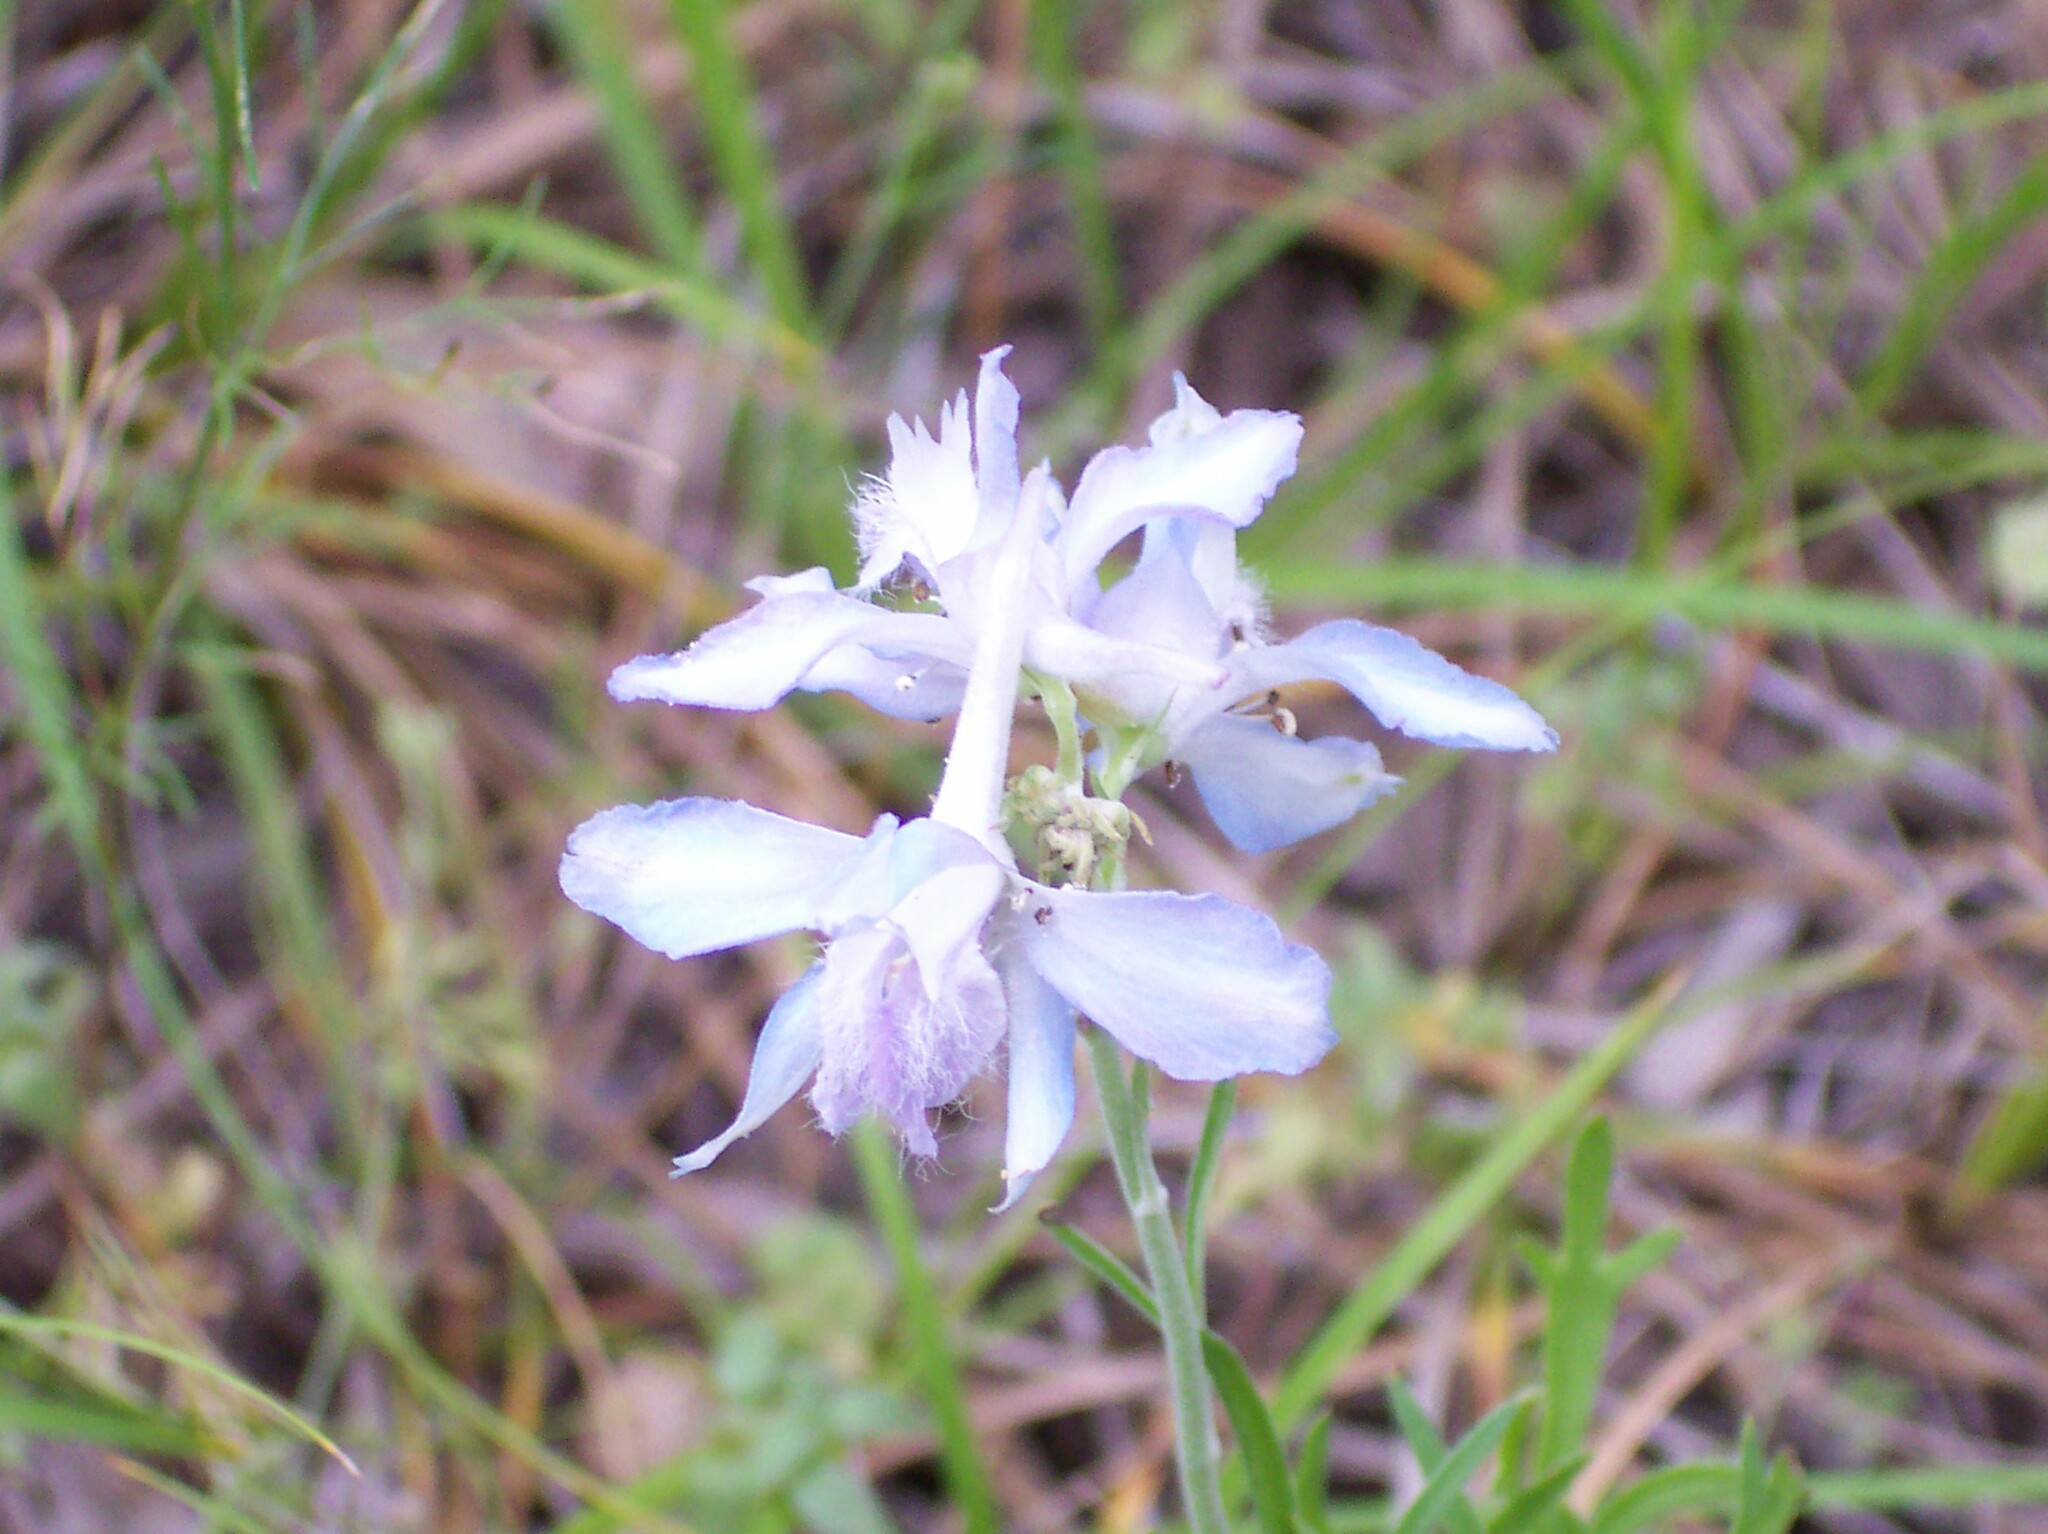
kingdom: Plantae
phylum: Tracheophyta
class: Magnoliopsida
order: Ranunculales
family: Ranunculaceae
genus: Delphinium
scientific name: Delphinium carolinianum
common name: Carolina larkspur
